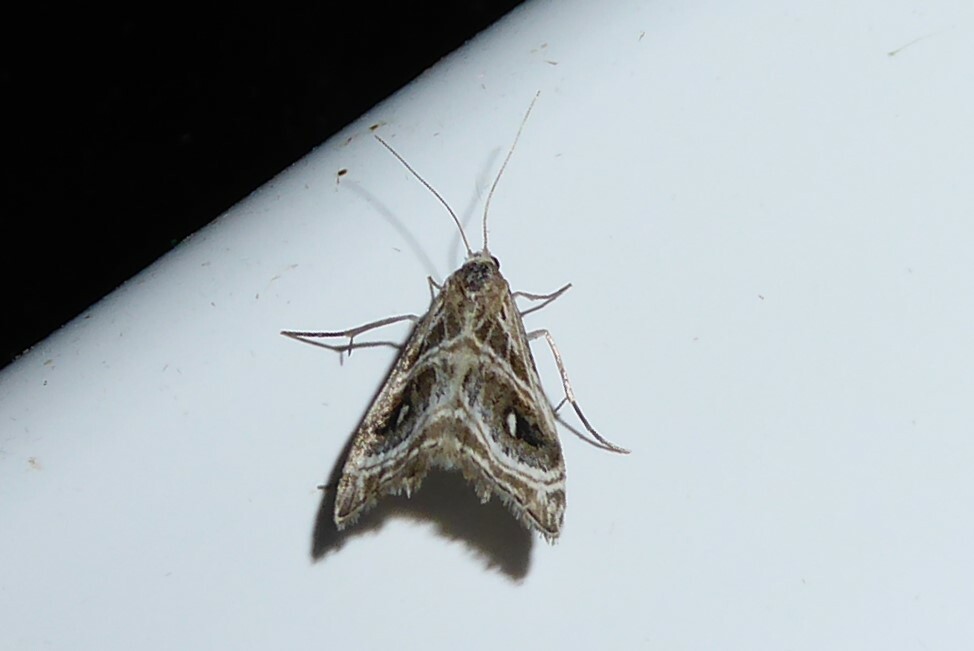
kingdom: Animalia
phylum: Arthropoda
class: Insecta
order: Lepidoptera
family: Crambidae
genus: Gadira
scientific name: Gadira acerella
